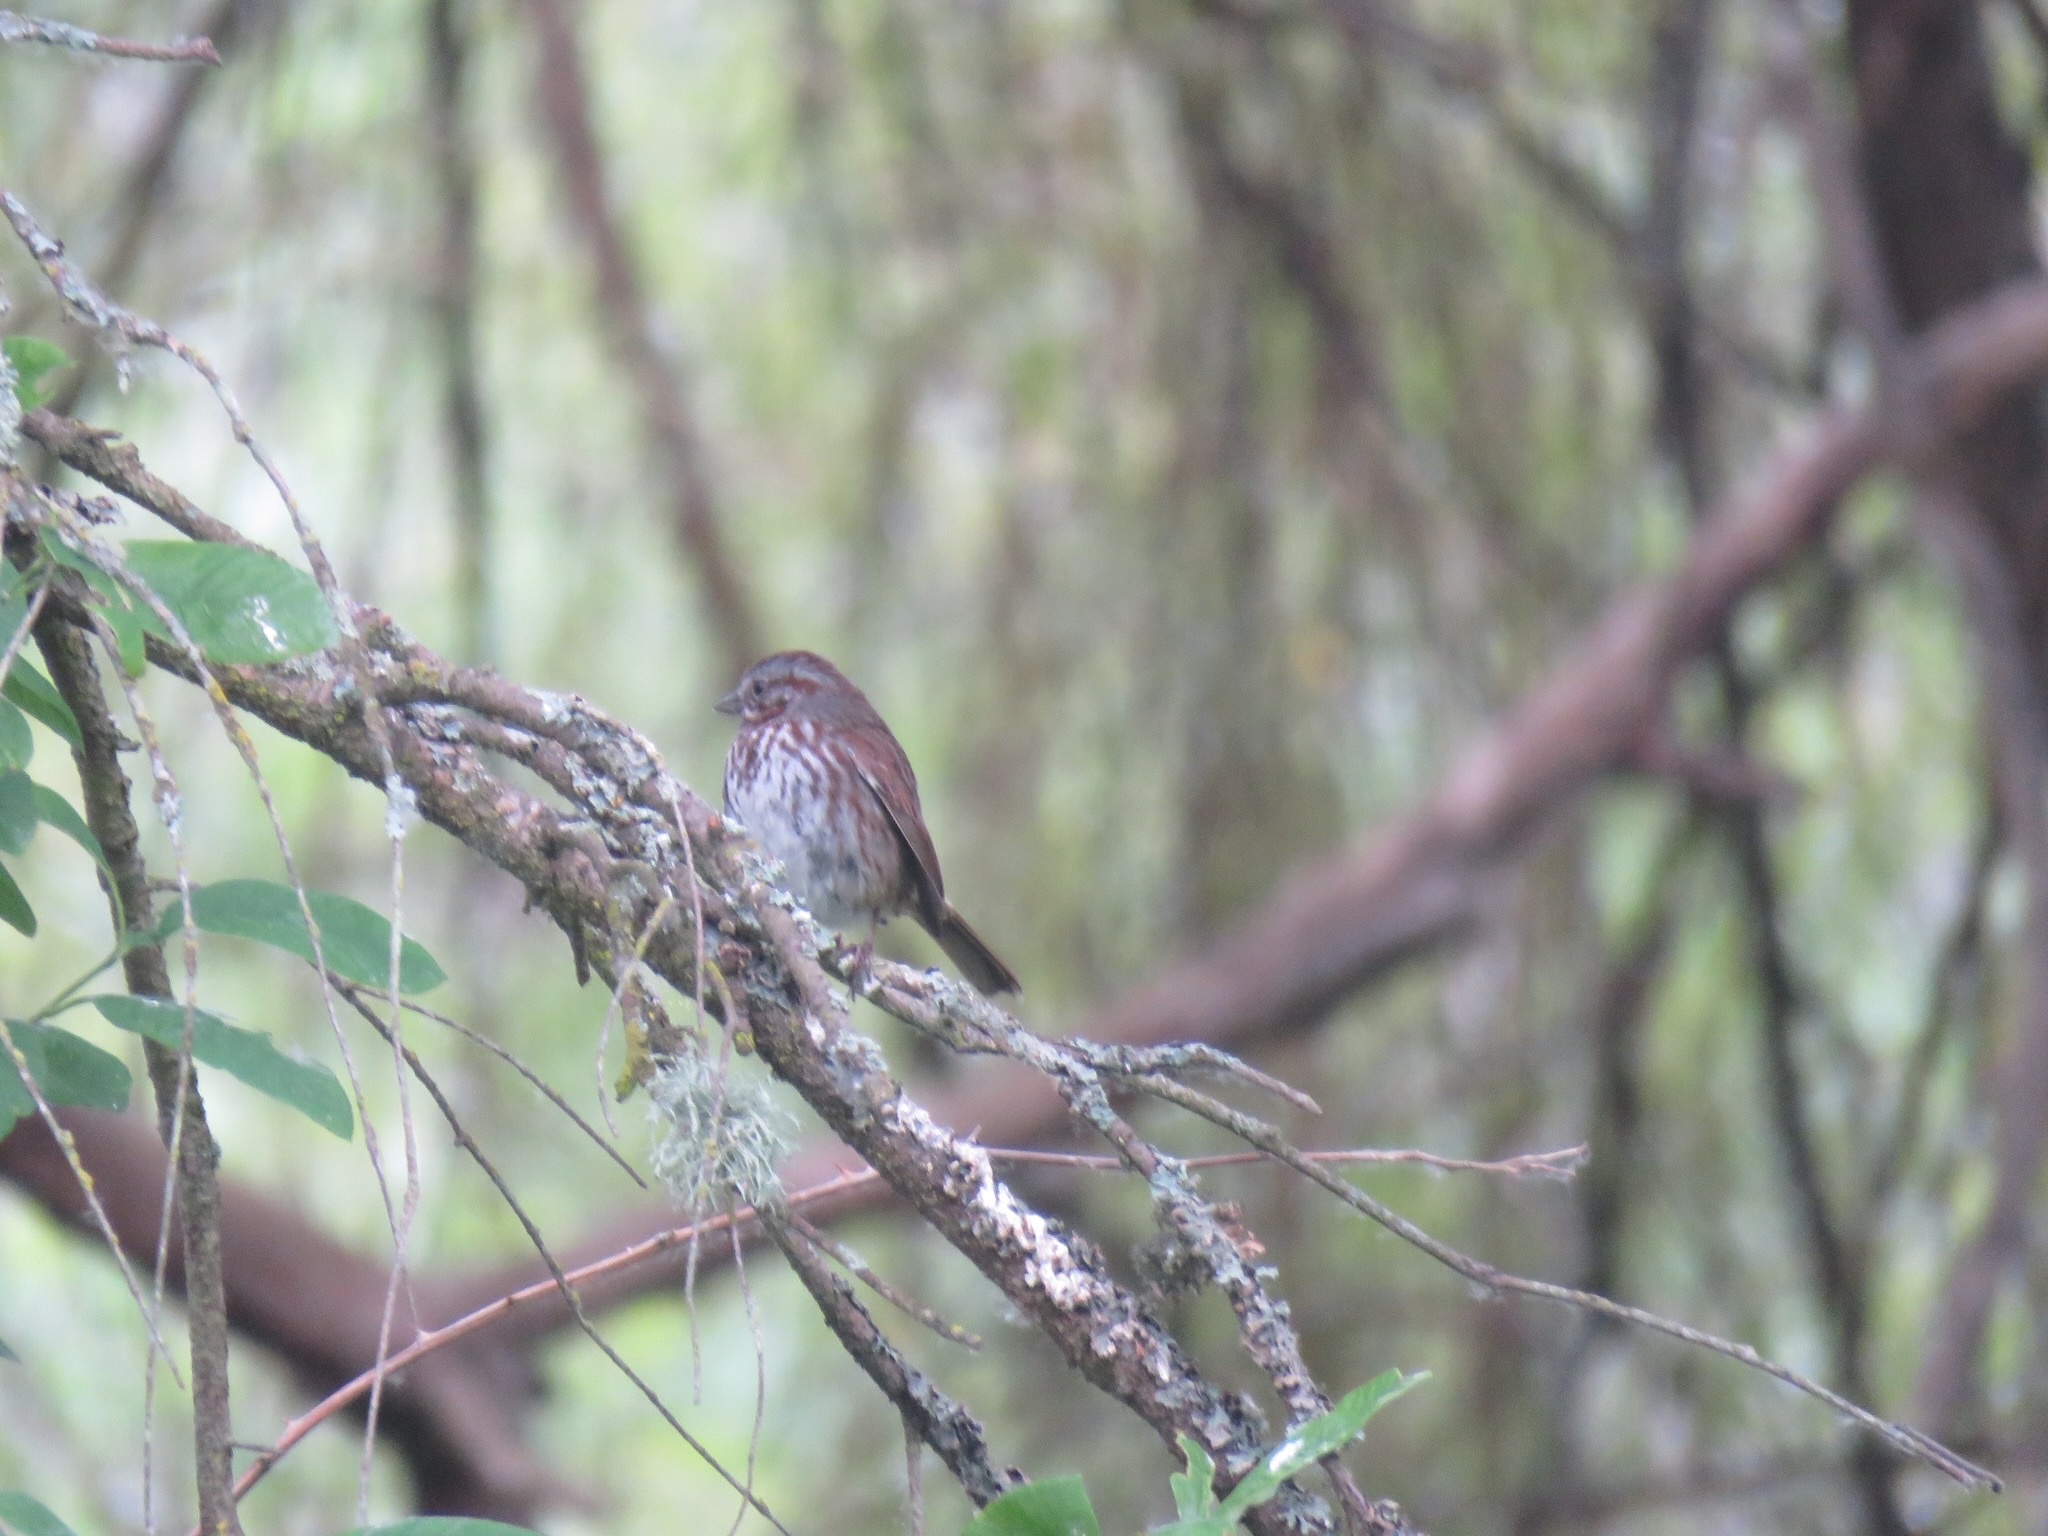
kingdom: Animalia
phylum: Chordata
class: Aves
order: Passeriformes
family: Passerellidae
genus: Melospiza
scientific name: Melospiza melodia
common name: Song sparrow
